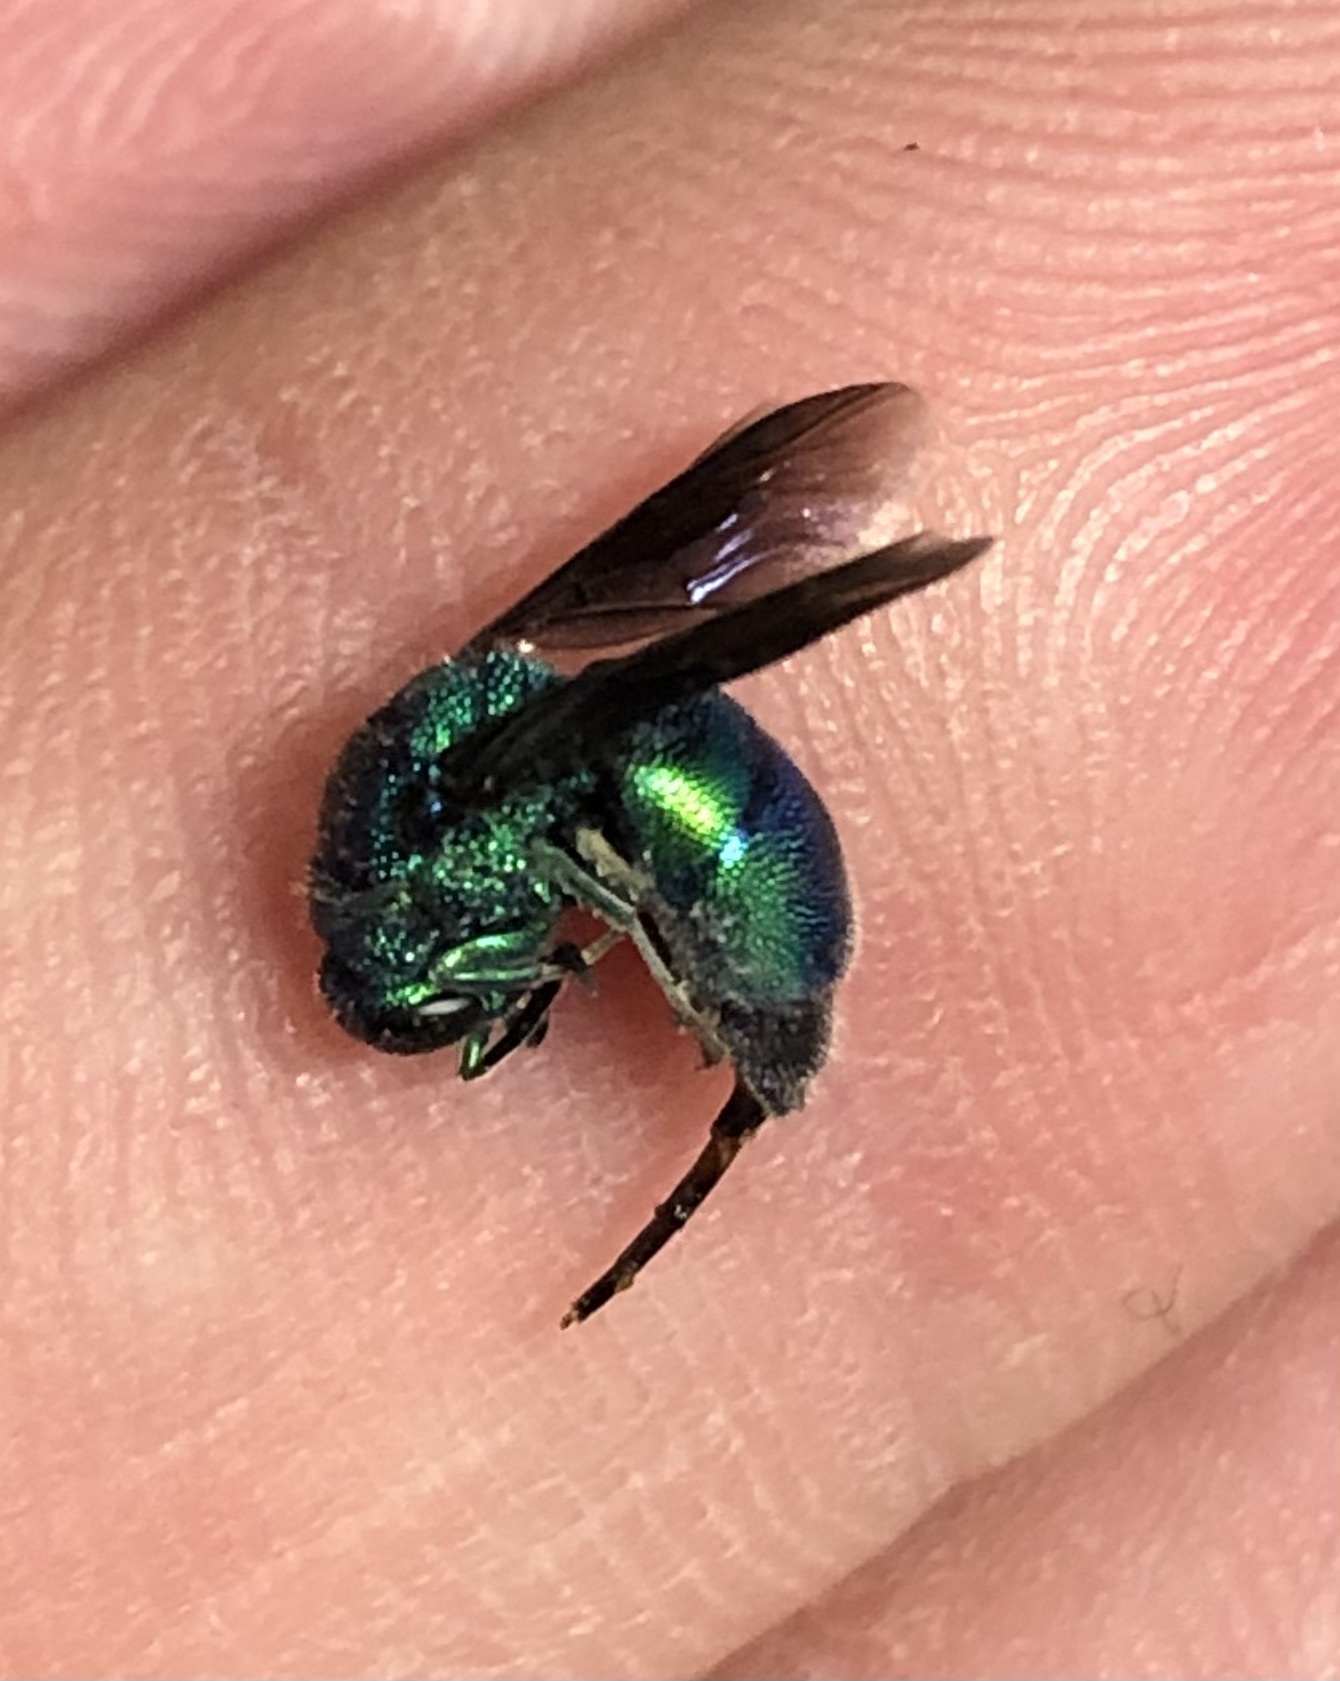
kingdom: Animalia
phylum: Arthropoda
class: Insecta
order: Hymenoptera
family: Chrysididae
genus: Chrysis
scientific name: Chrysis angolensis
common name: Cuckoo wasp
